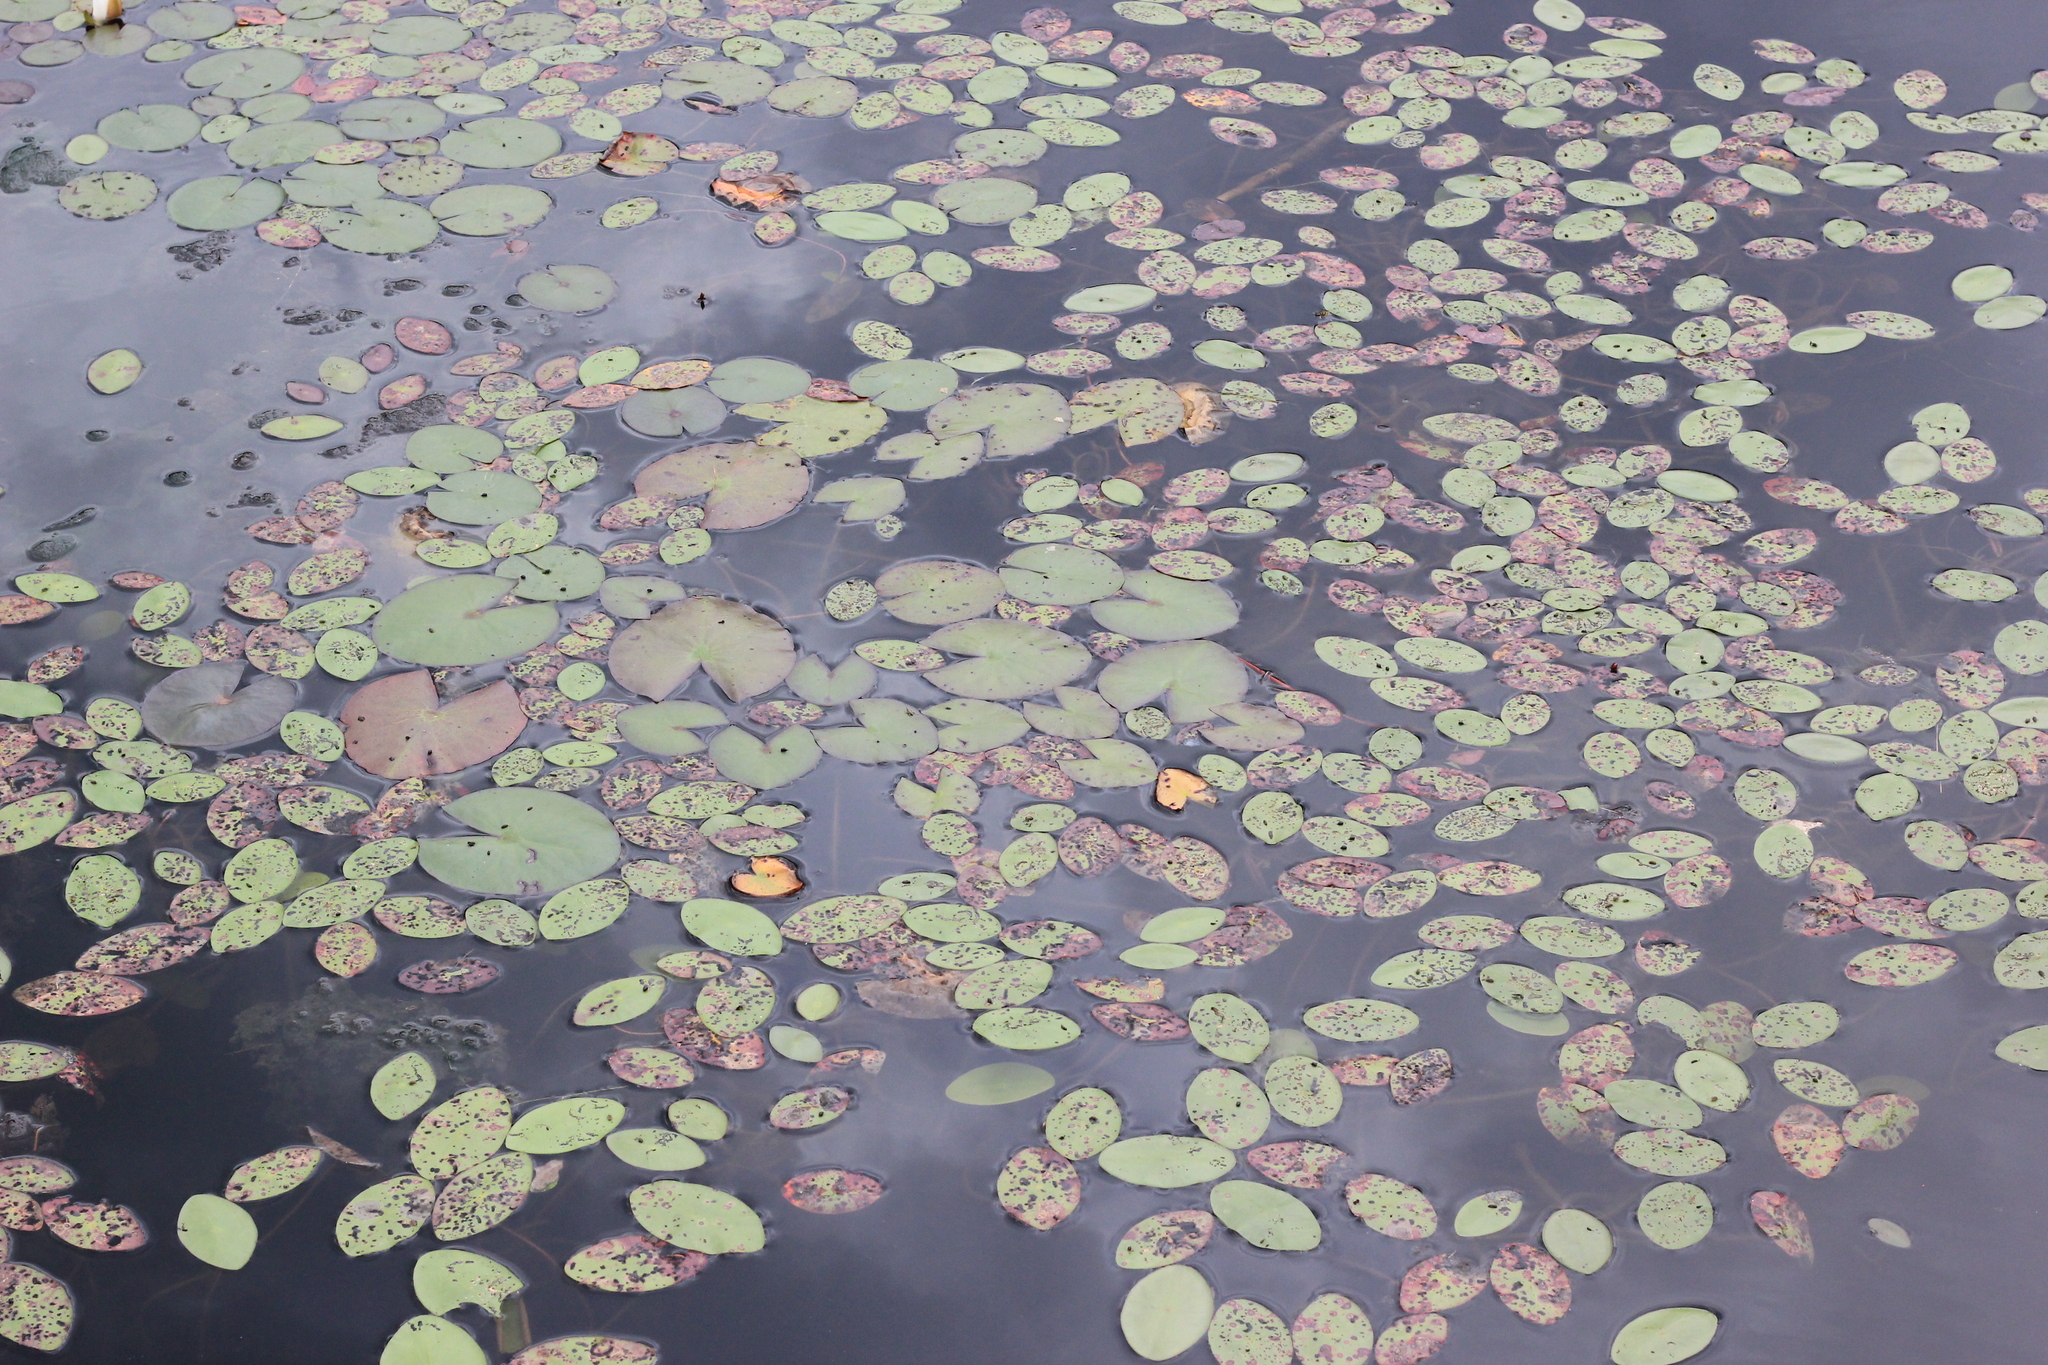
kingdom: Plantae
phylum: Tracheophyta
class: Magnoliopsida
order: Nymphaeales
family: Cabombaceae
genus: Brasenia
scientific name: Brasenia schreberi
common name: Water-shield
